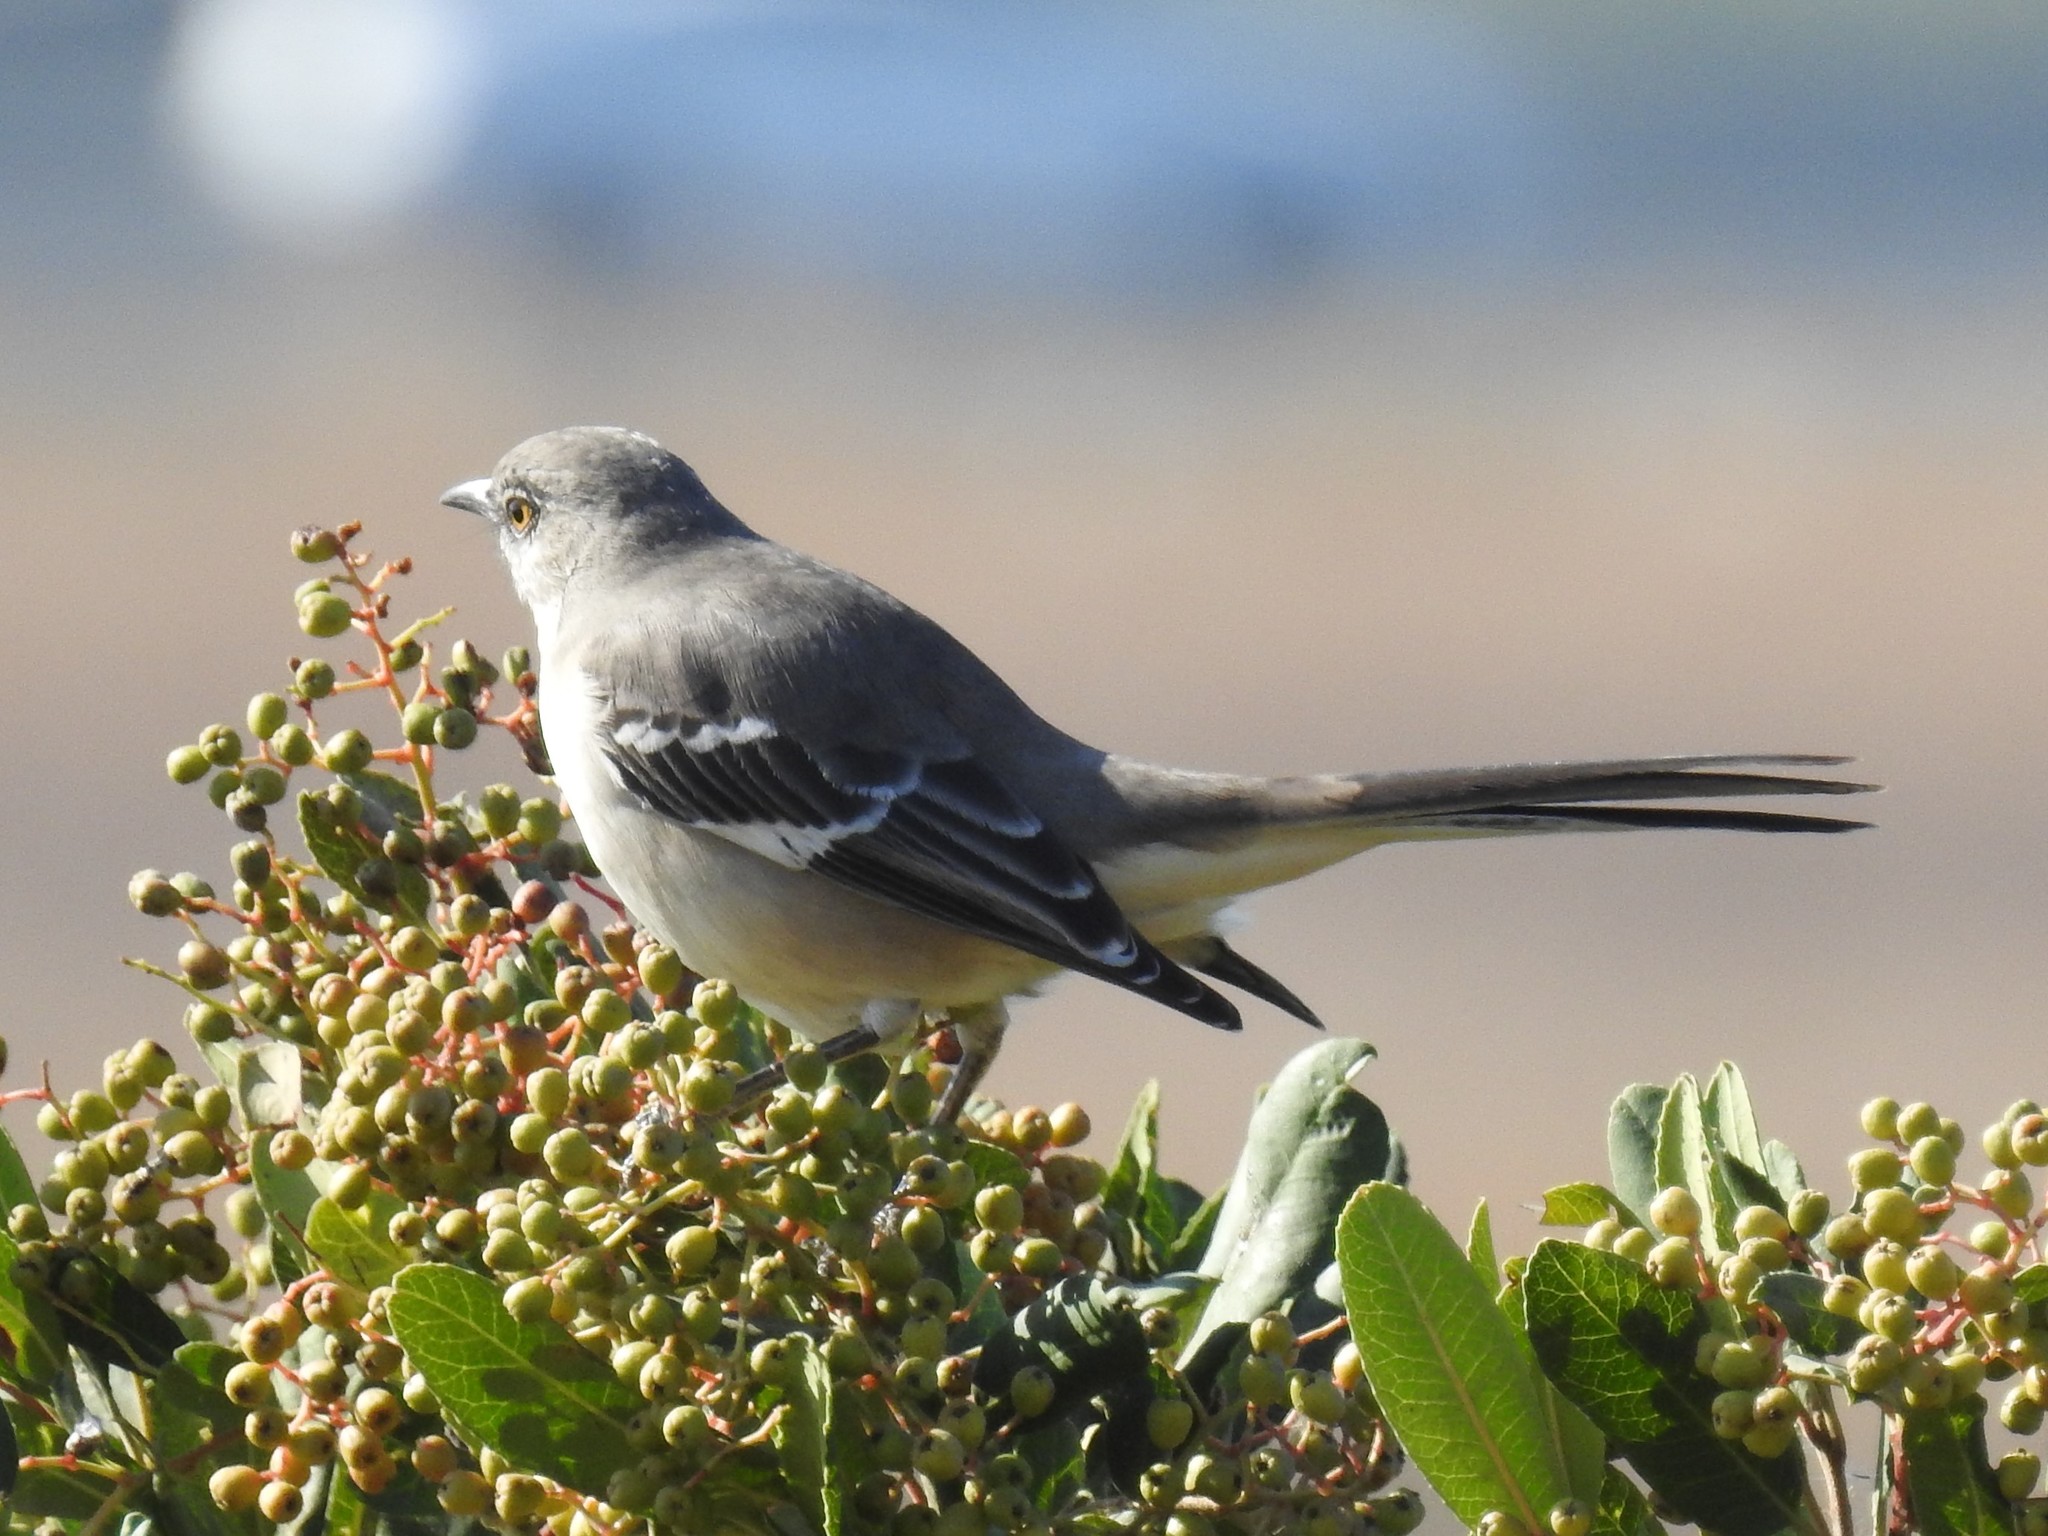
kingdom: Animalia
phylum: Chordata
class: Aves
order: Passeriformes
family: Mimidae
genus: Mimus
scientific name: Mimus polyglottos
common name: Northern mockingbird
